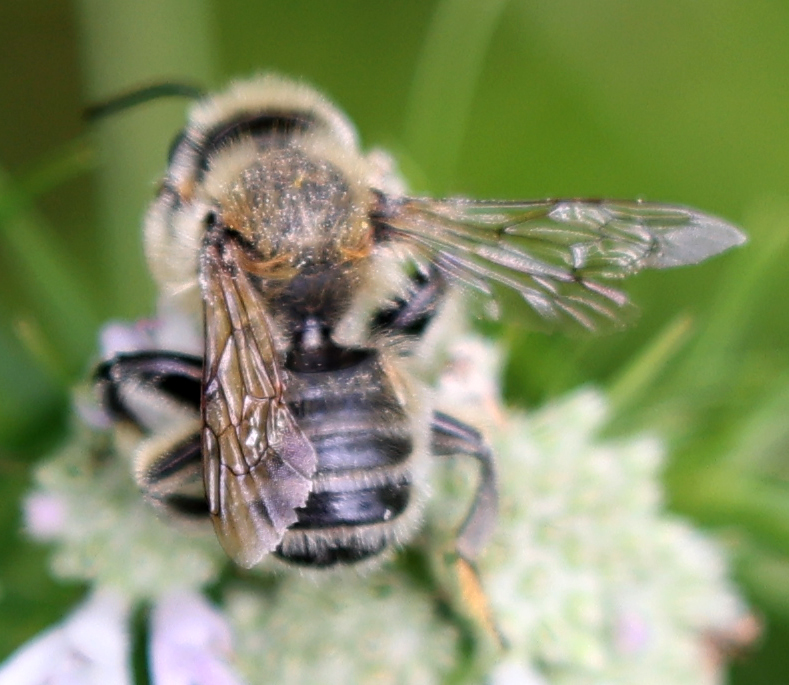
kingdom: Animalia
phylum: Arthropoda
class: Insecta
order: Hymenoptera
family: Megachilidae
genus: Megachile
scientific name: Megachile latimanus
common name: Leafcutting bee
